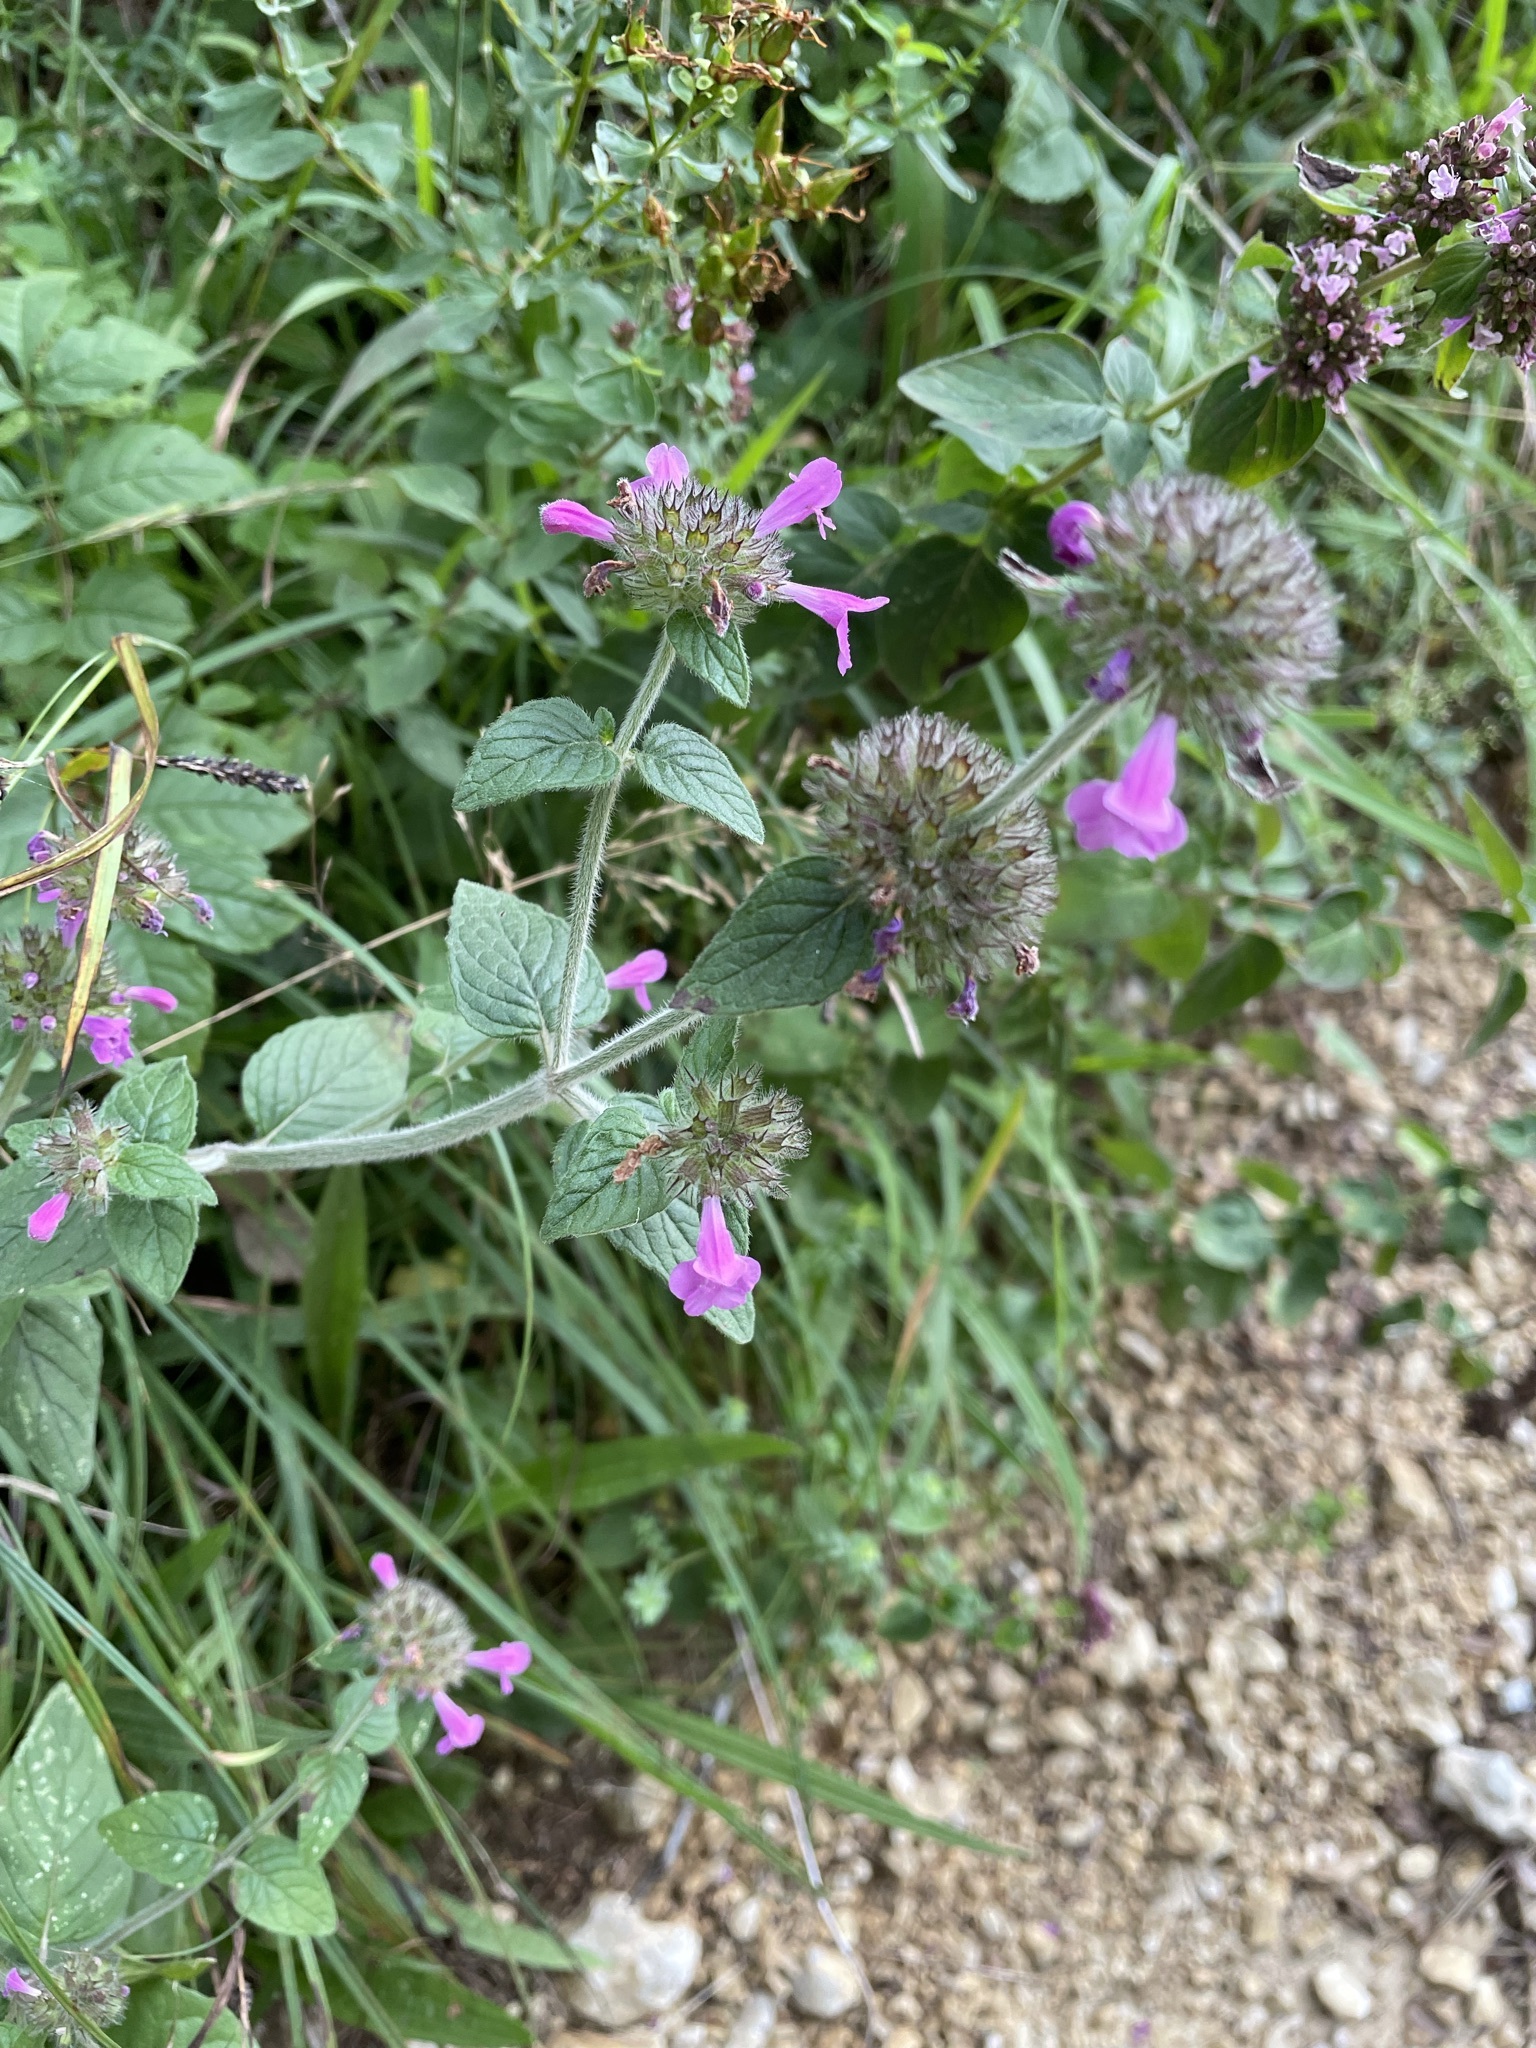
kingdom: Plantae
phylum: Tracheophyta
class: Magnoliopsida
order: Lamiales
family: Lamiaceae
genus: Clinopodium
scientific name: Clinopodium vulgare
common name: Wild basil
